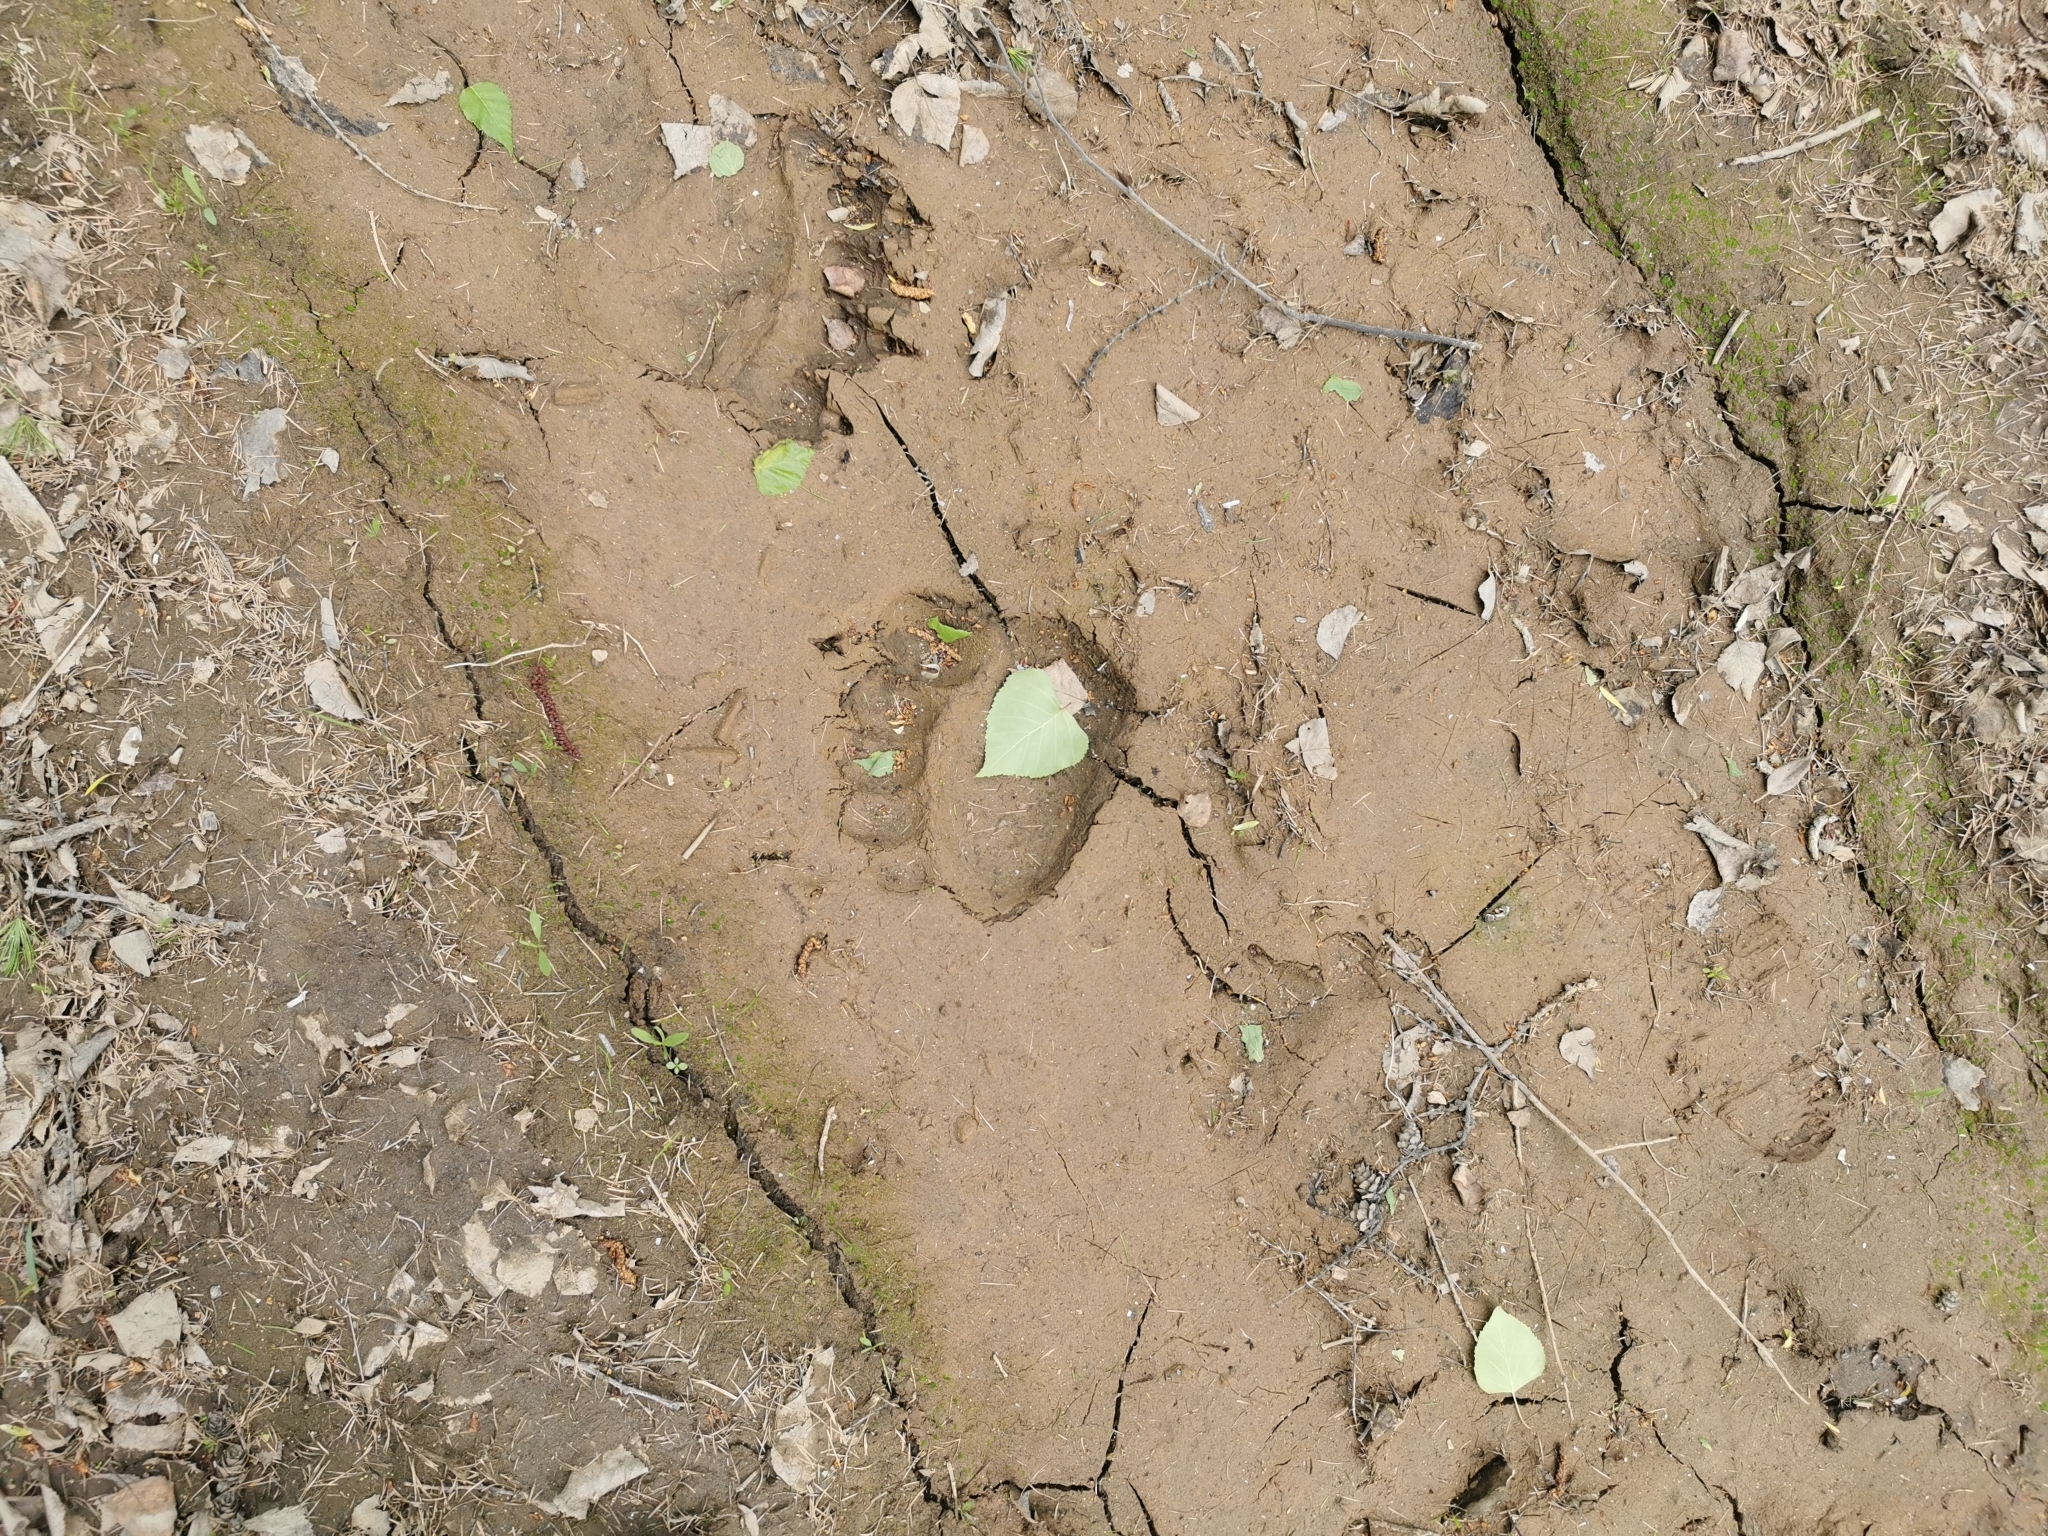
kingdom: Animalia
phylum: Chordata
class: Mammalia
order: Carnivora
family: Ursidae
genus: Ursus
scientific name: Ursus arctos
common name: Brown bear
